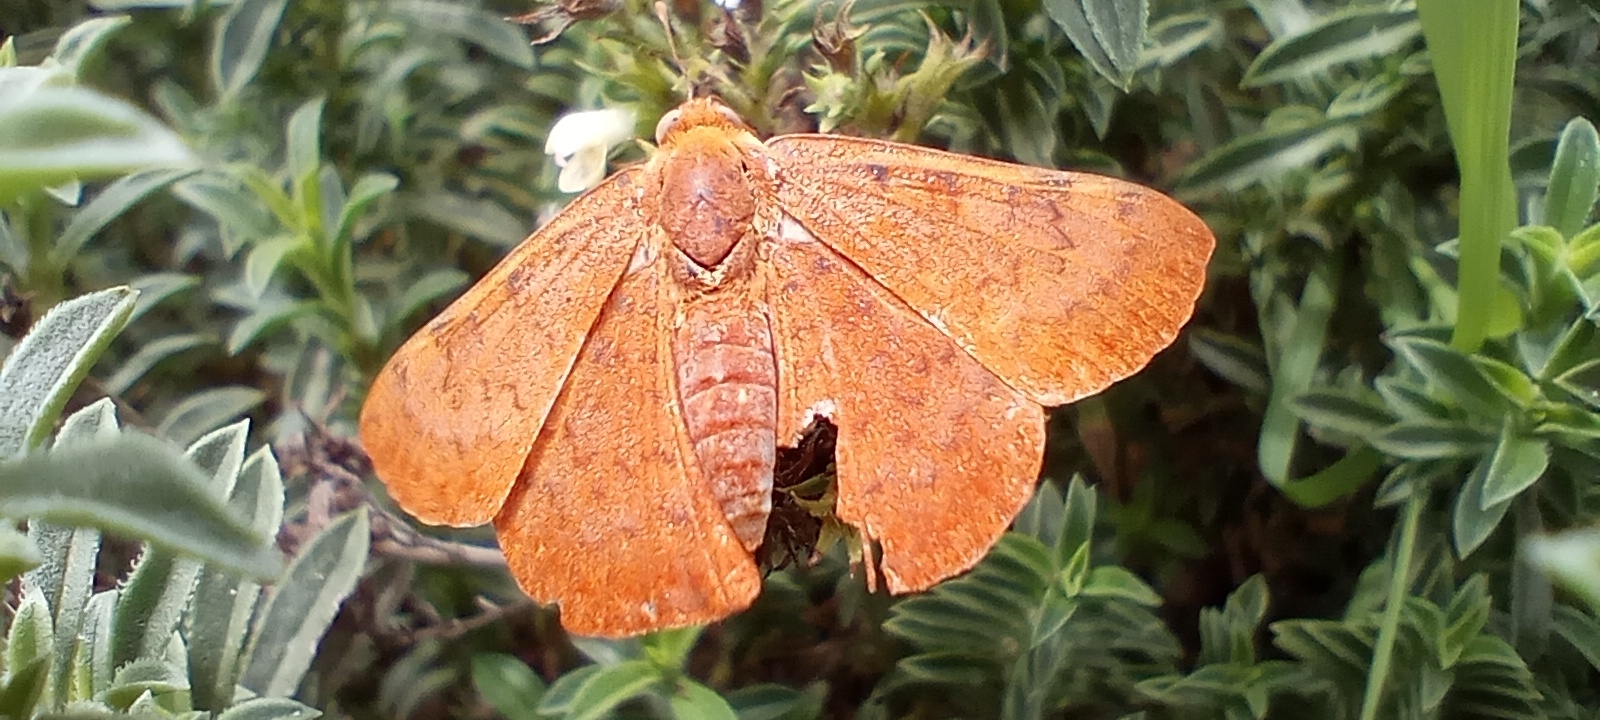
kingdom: Animalia
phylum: Arthropoda
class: Insecta
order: Lepidoptera
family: Lycaenidae
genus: Emesis
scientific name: Emesis russula
